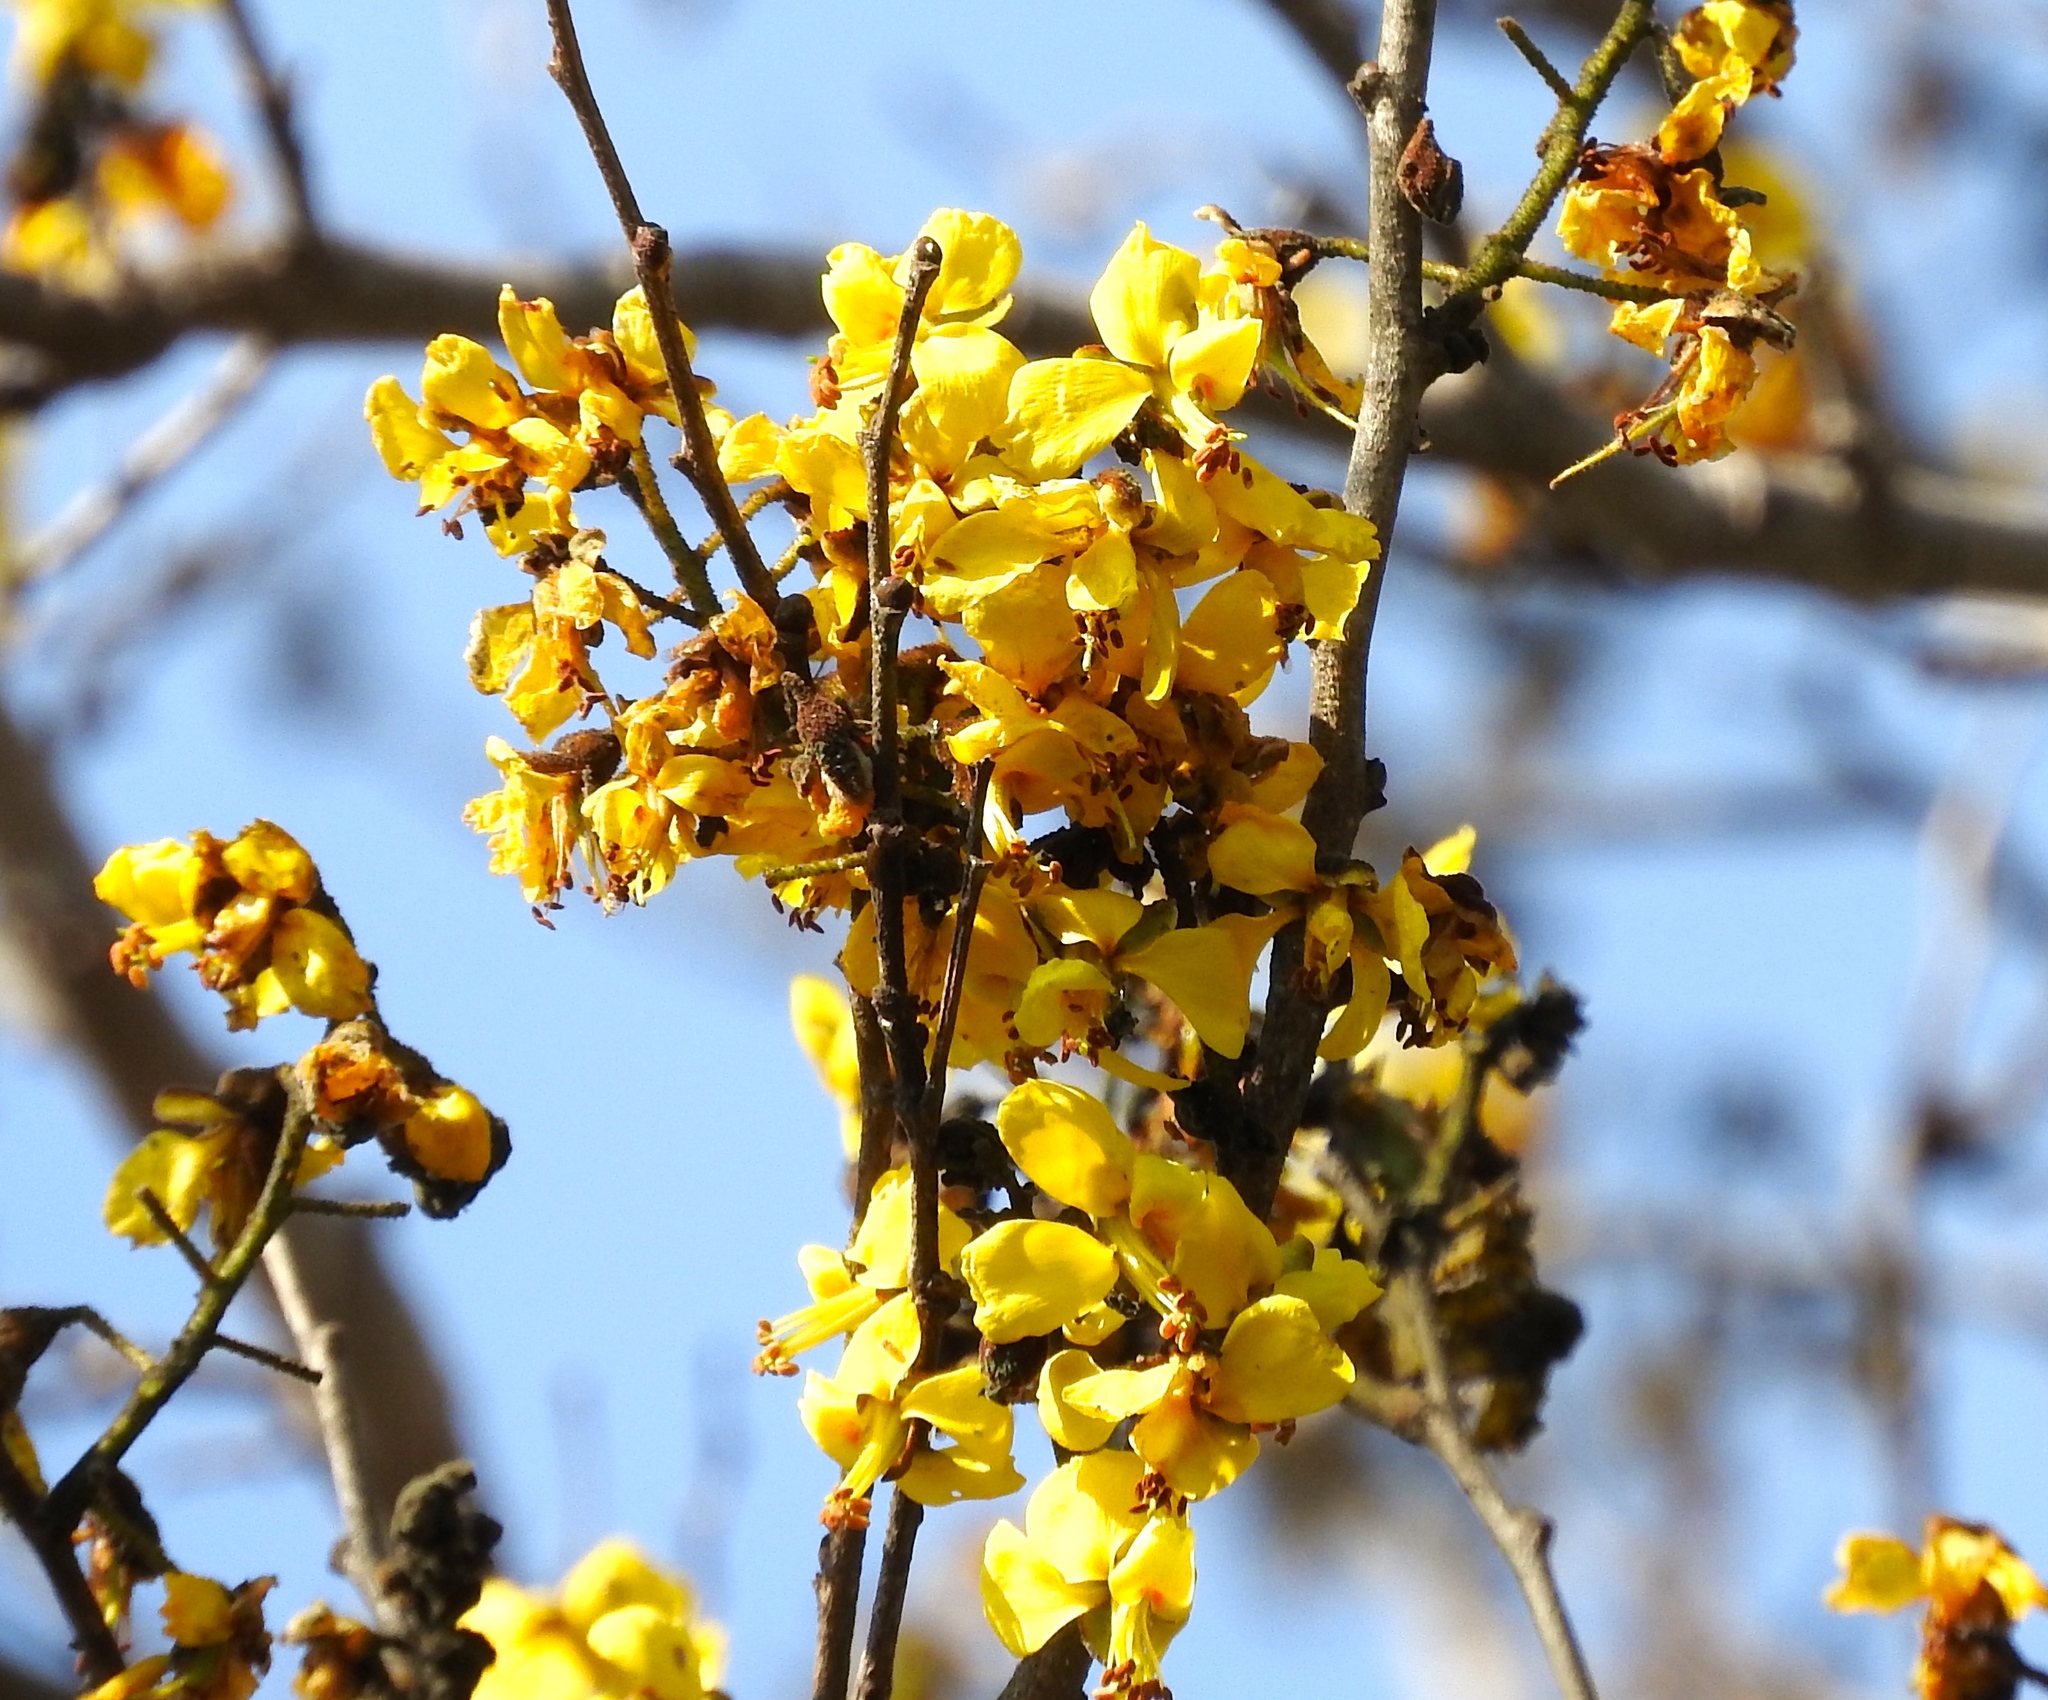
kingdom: Plantae
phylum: Tracheophyta
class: Magnoliopsida
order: Fabales
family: Fabaceae
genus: Cenostigma
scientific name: Cenostigma eriostachys
